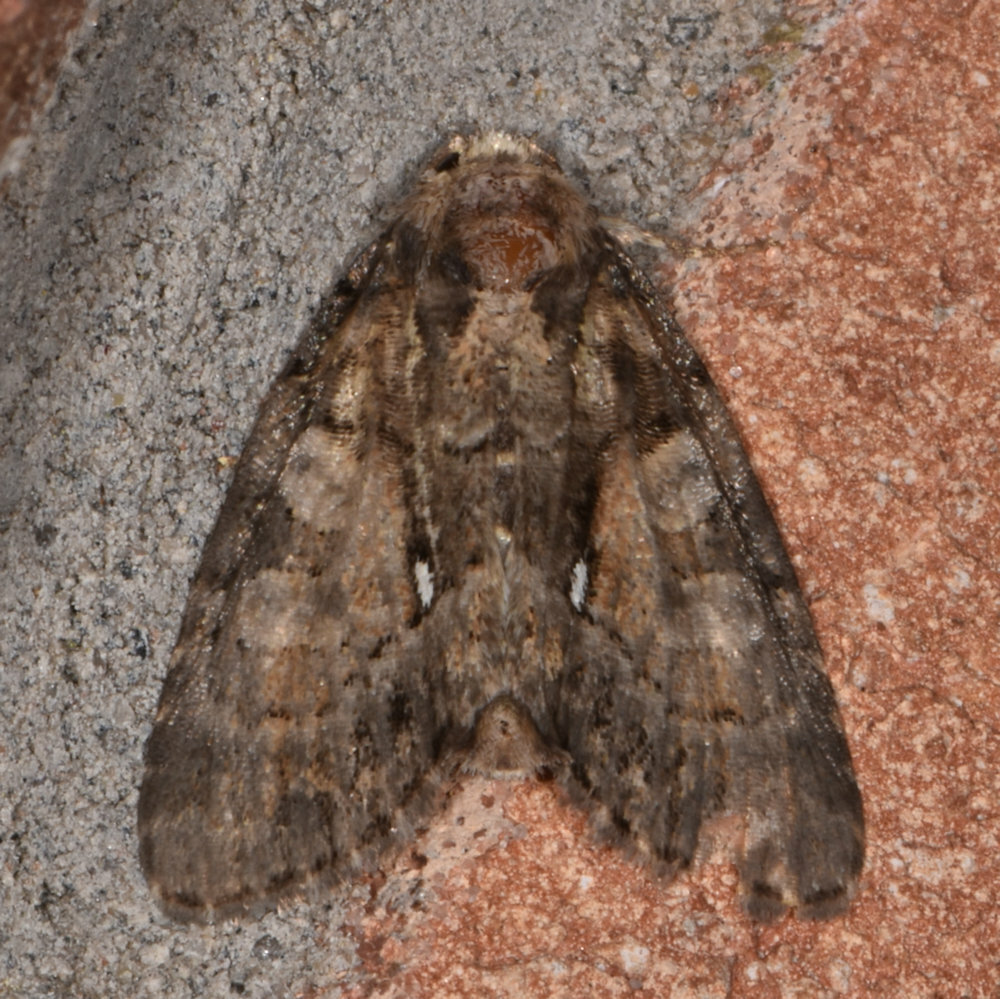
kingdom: Animalia
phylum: Arthropoda
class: Insecta
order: Lepidoptera
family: Noctuidae
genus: Chytonix
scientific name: Chytonix palliatricula
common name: Cloaked marvel
